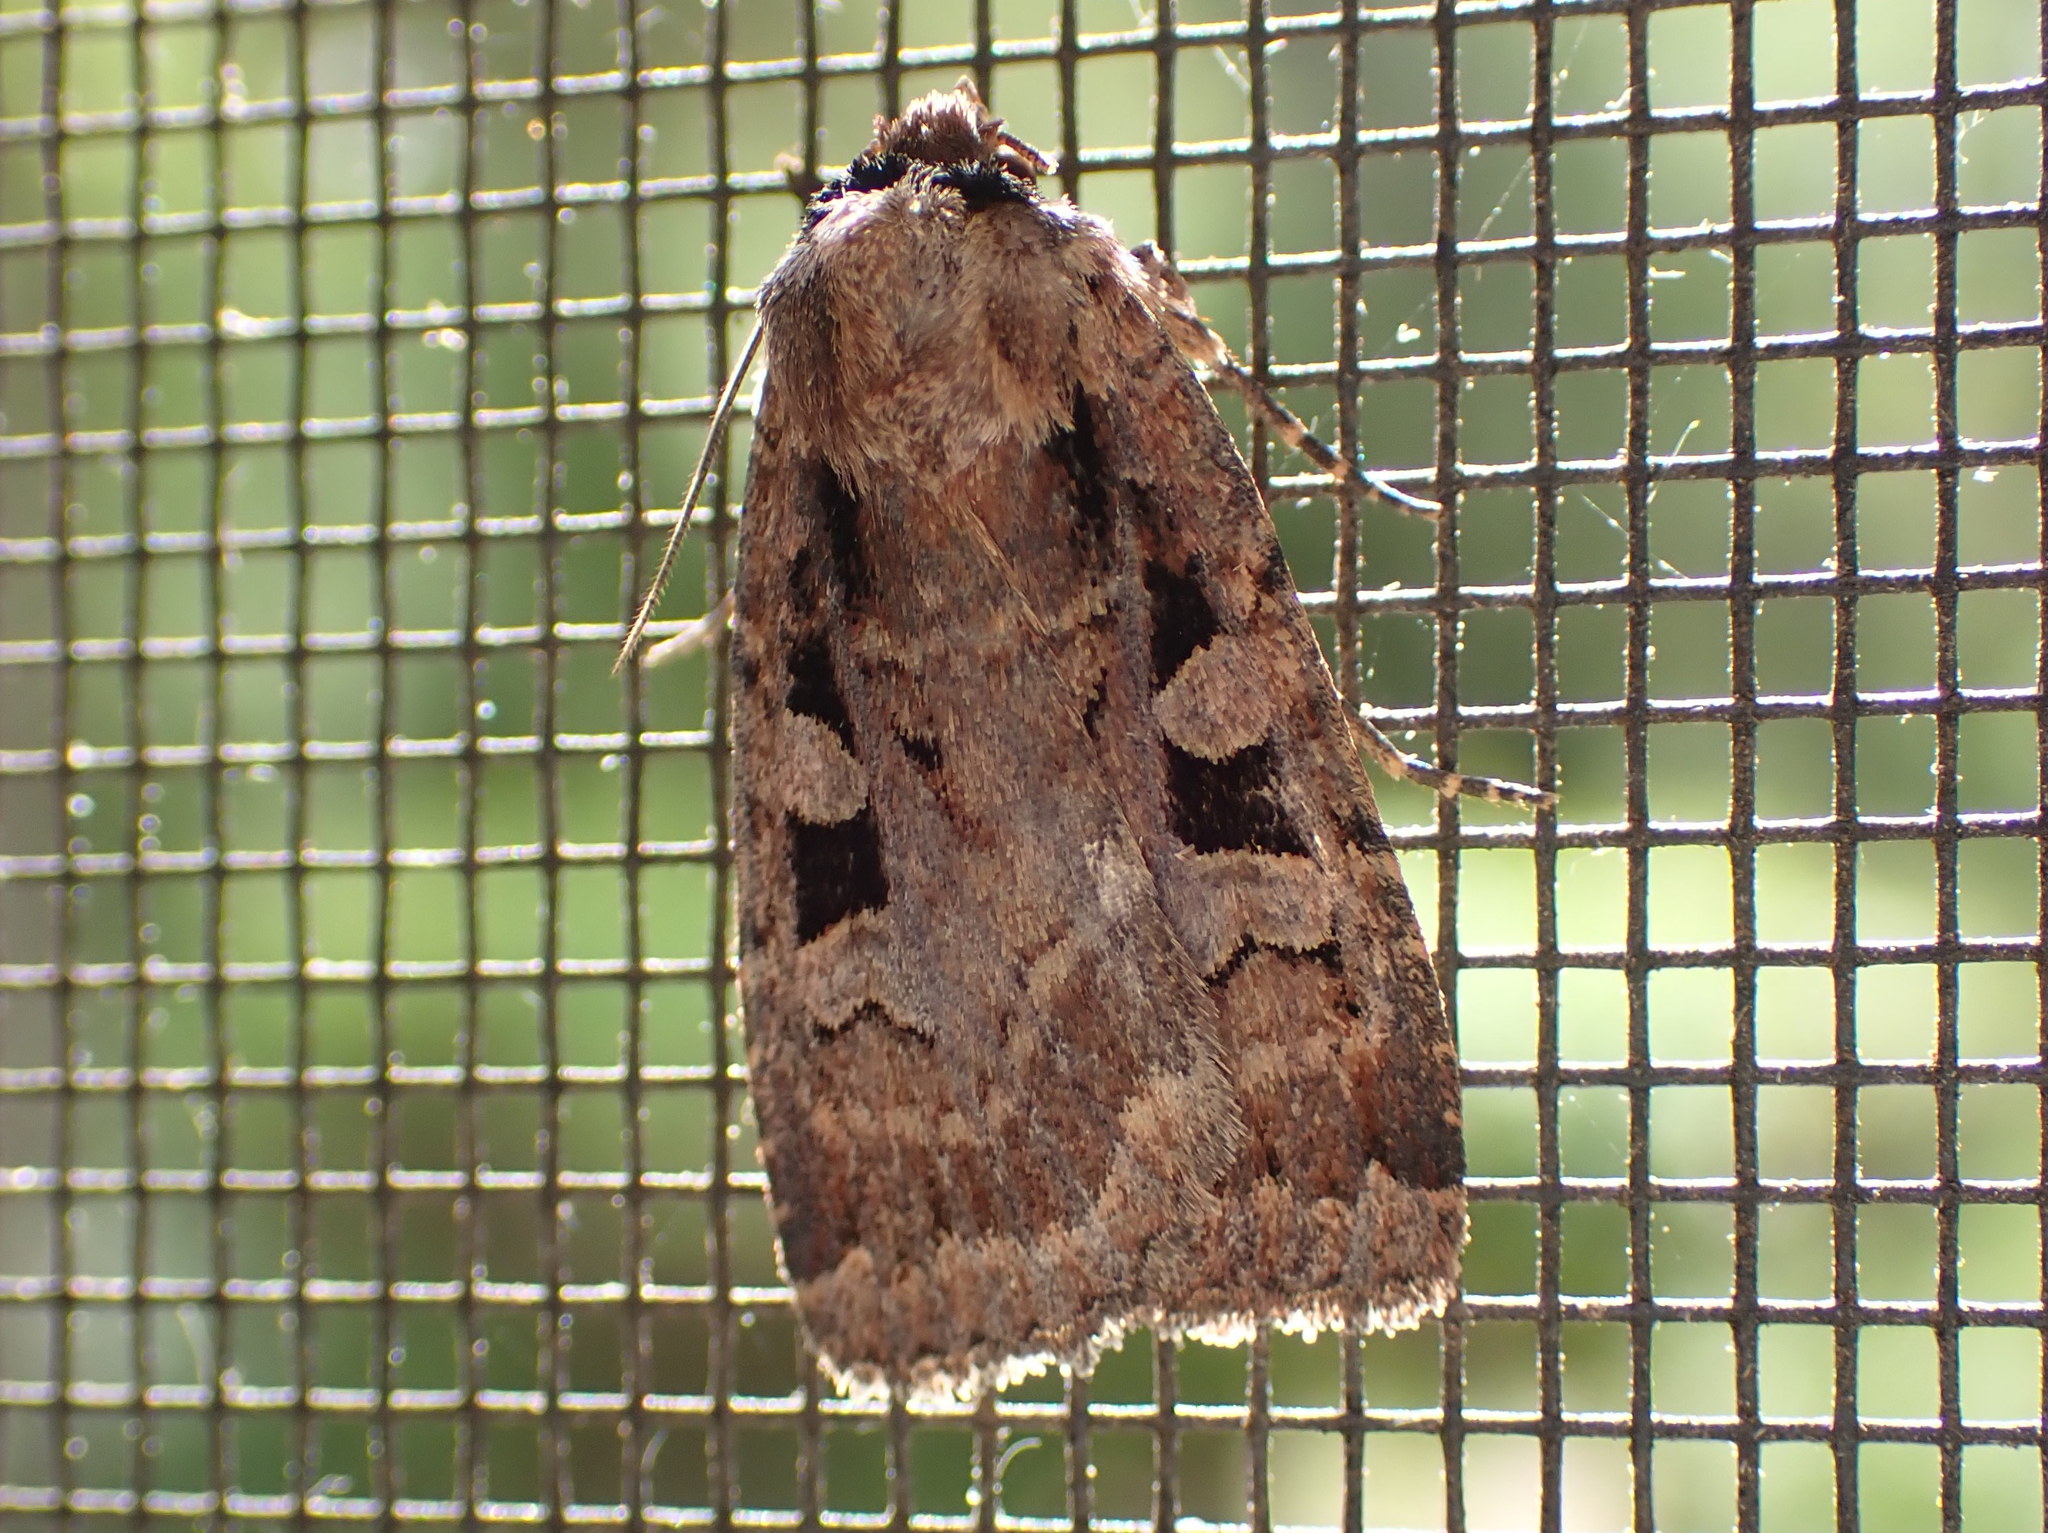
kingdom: Animalia
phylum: Arthropoda
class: Insecta
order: Lepidoptera
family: Noctuidae
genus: Eueretagrotis
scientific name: Eueretagrotis perattentus
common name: Two-spot dart moth
